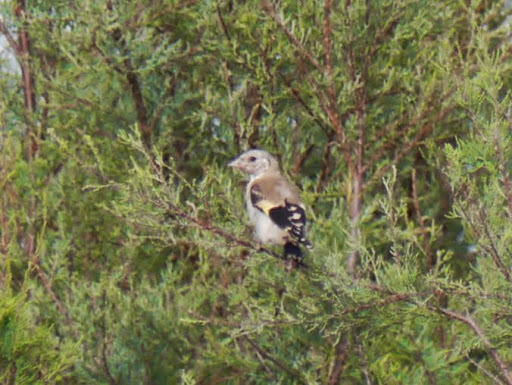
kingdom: Animalia
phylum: Chordata
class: Aves
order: Passeriformes
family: Fringillidae
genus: Carduelis
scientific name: Carduelis carduelis
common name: European goldfinch
